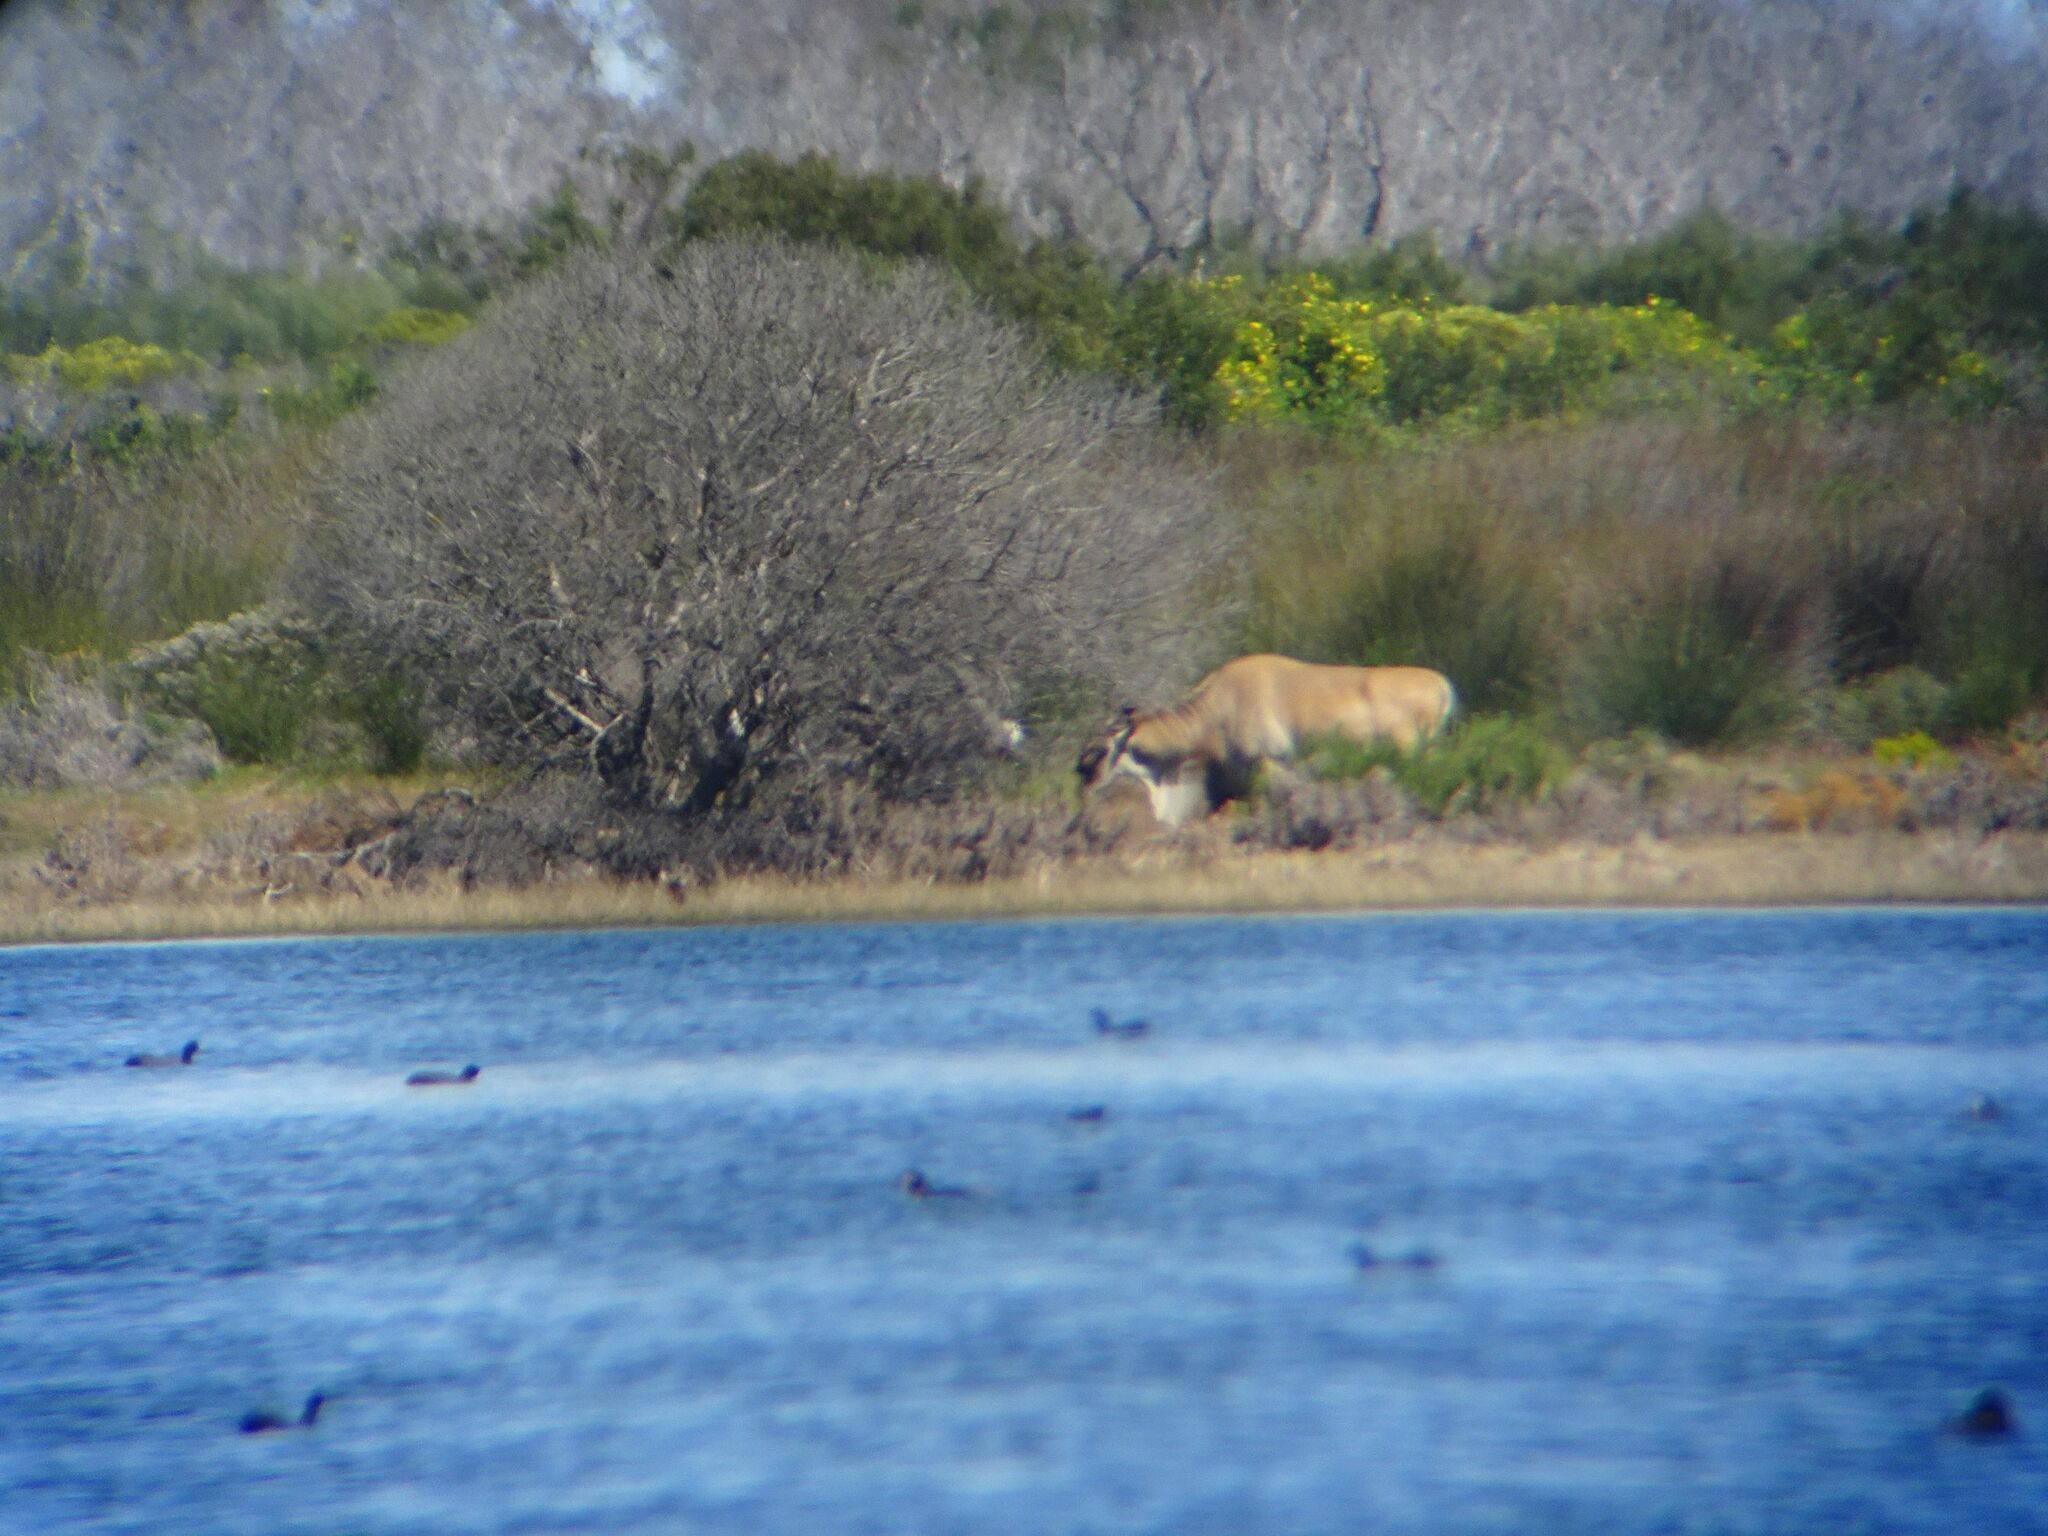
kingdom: Animalia
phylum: Chordata
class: Mammalia
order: Artiodactyla
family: Bovidae
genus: Taurotragus
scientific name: Taurotragus oryx
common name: Common eland
